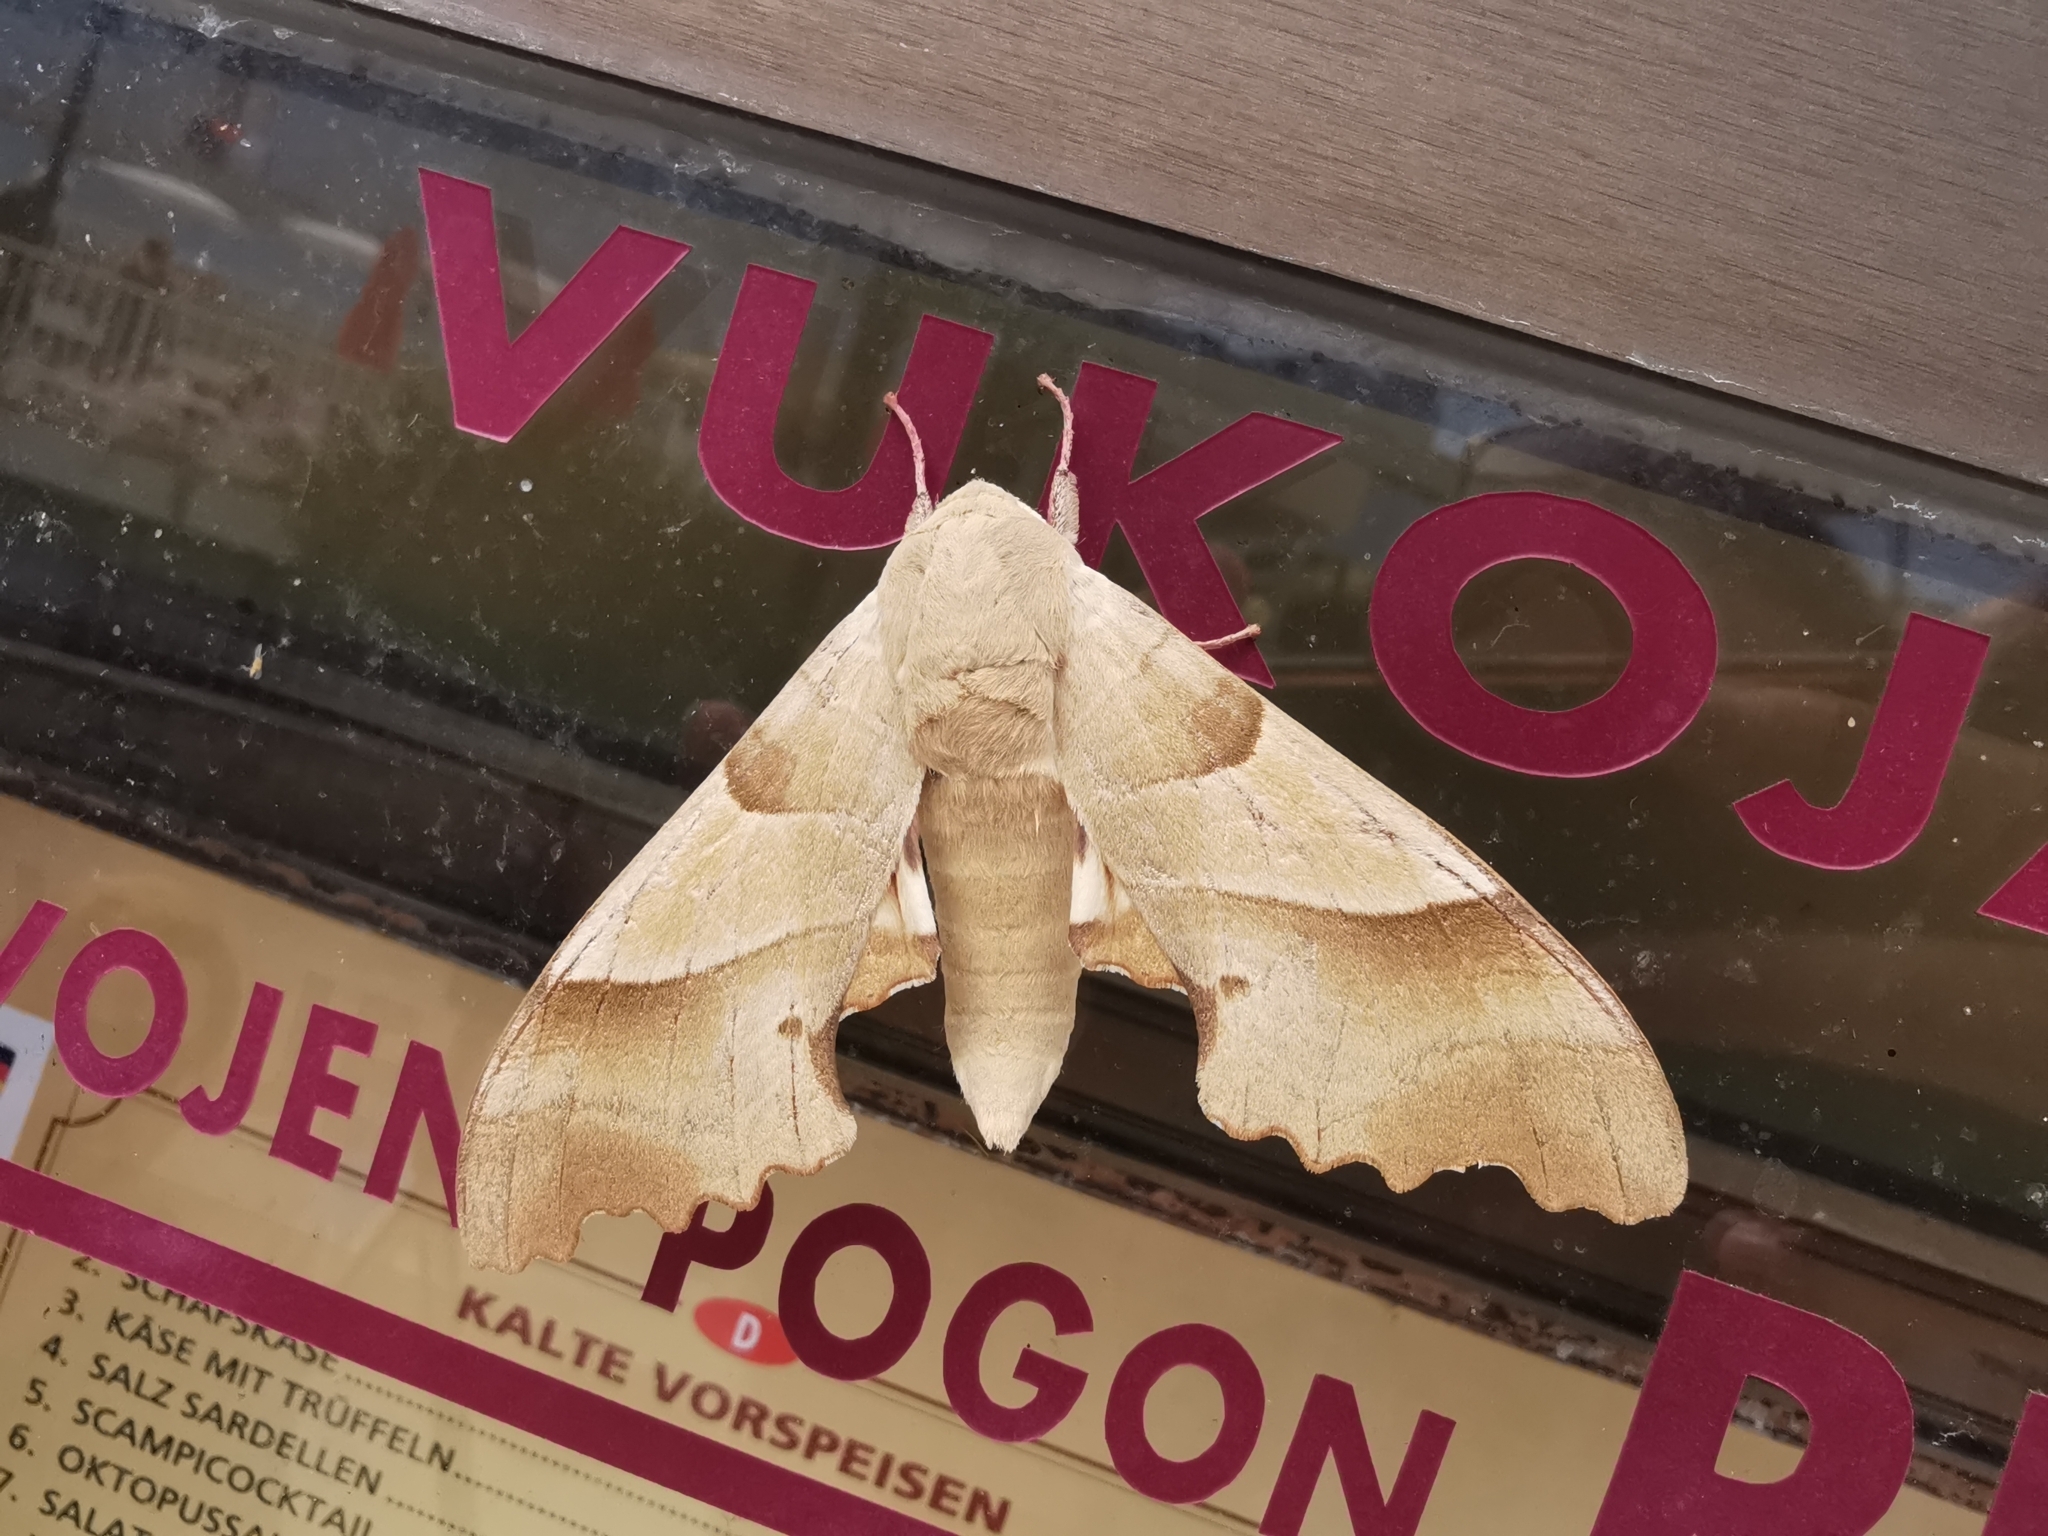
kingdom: Animalia
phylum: Arthropoda
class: Insecta
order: Lepidoptera
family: Sphingidae
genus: Marumba
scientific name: Marumba quercus
